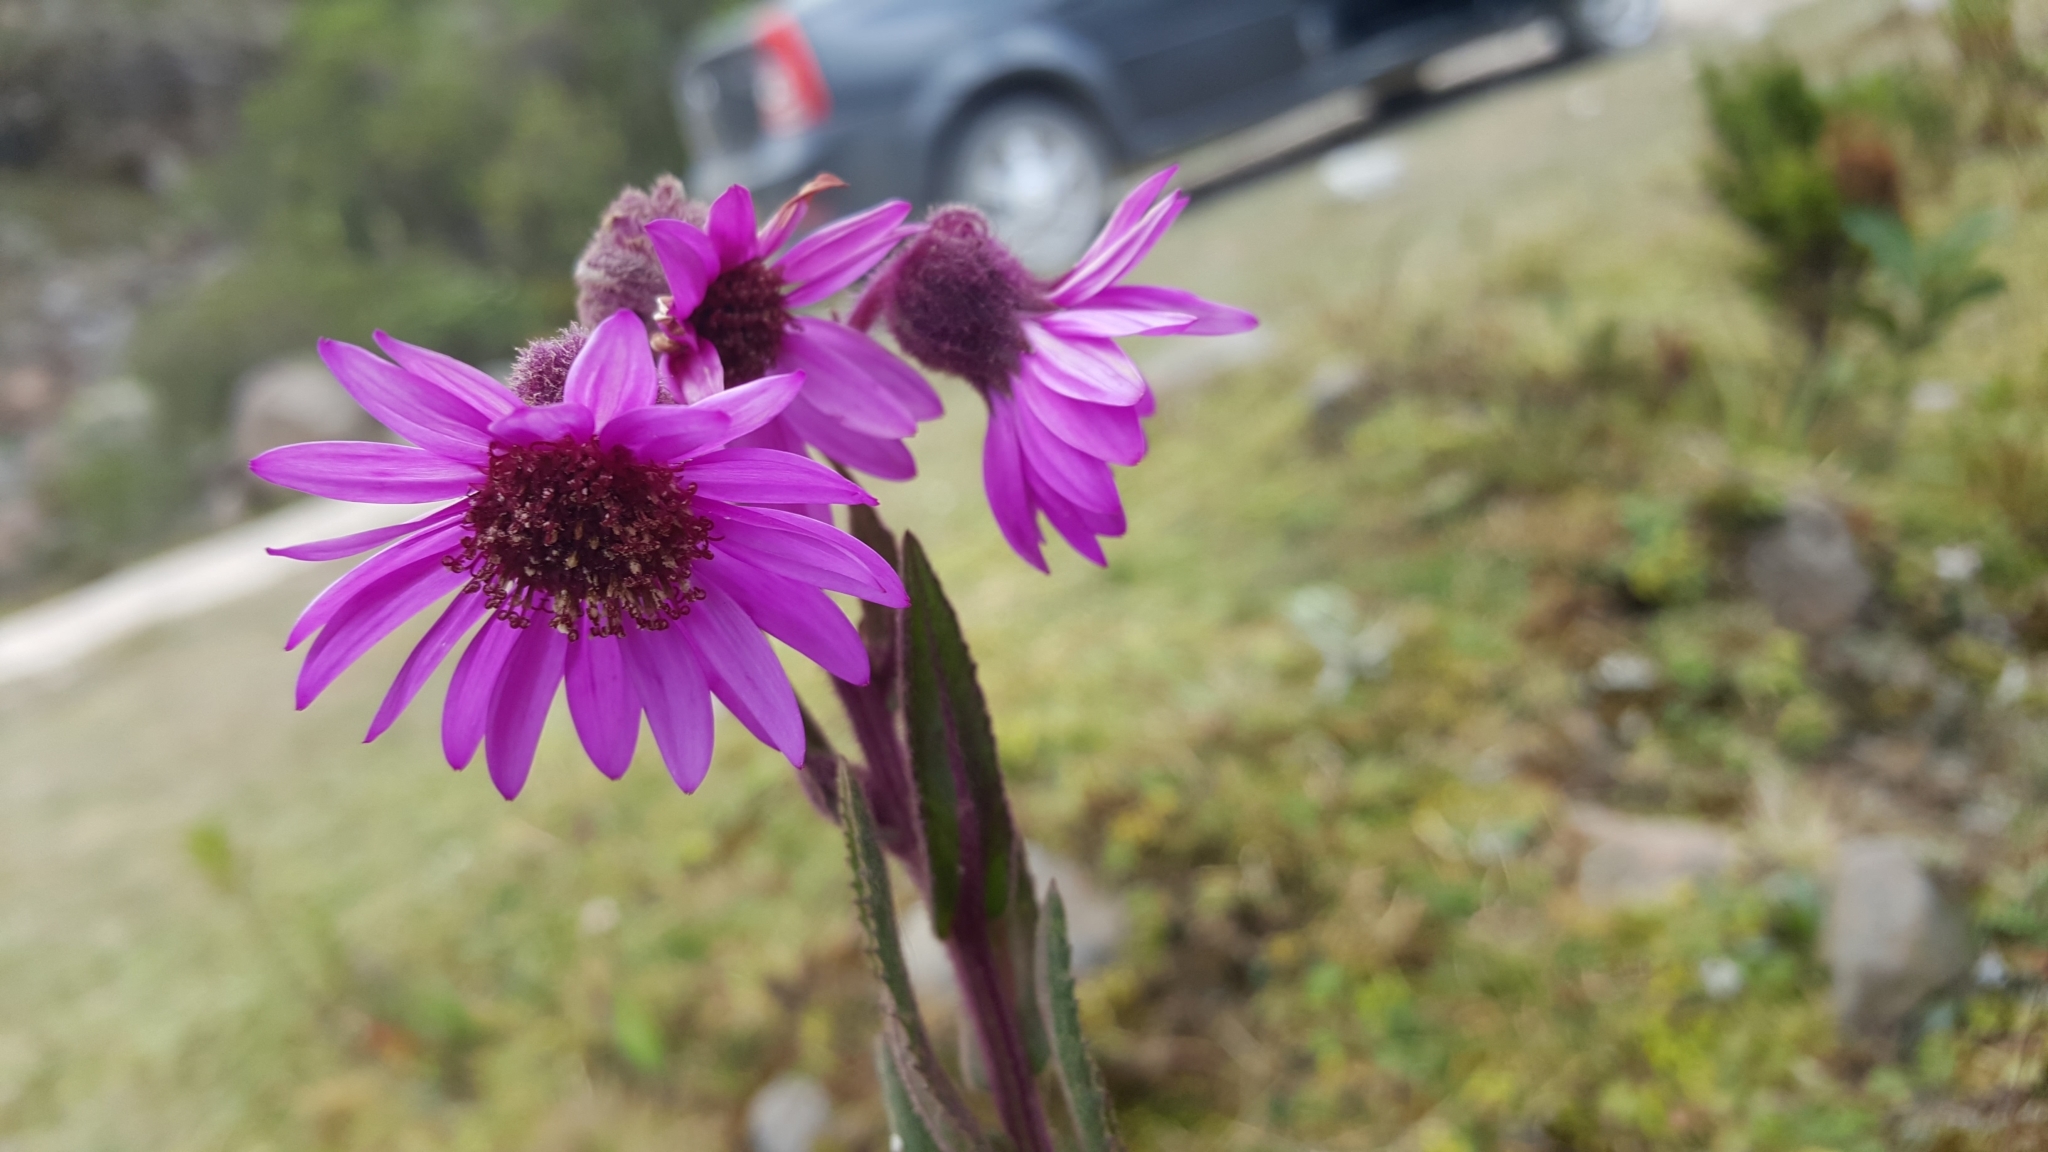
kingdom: Plantae
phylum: Tracheophyta
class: Magnoliopsida
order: Asterales
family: Asteraceae
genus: Senecio
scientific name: Senecio formosus
